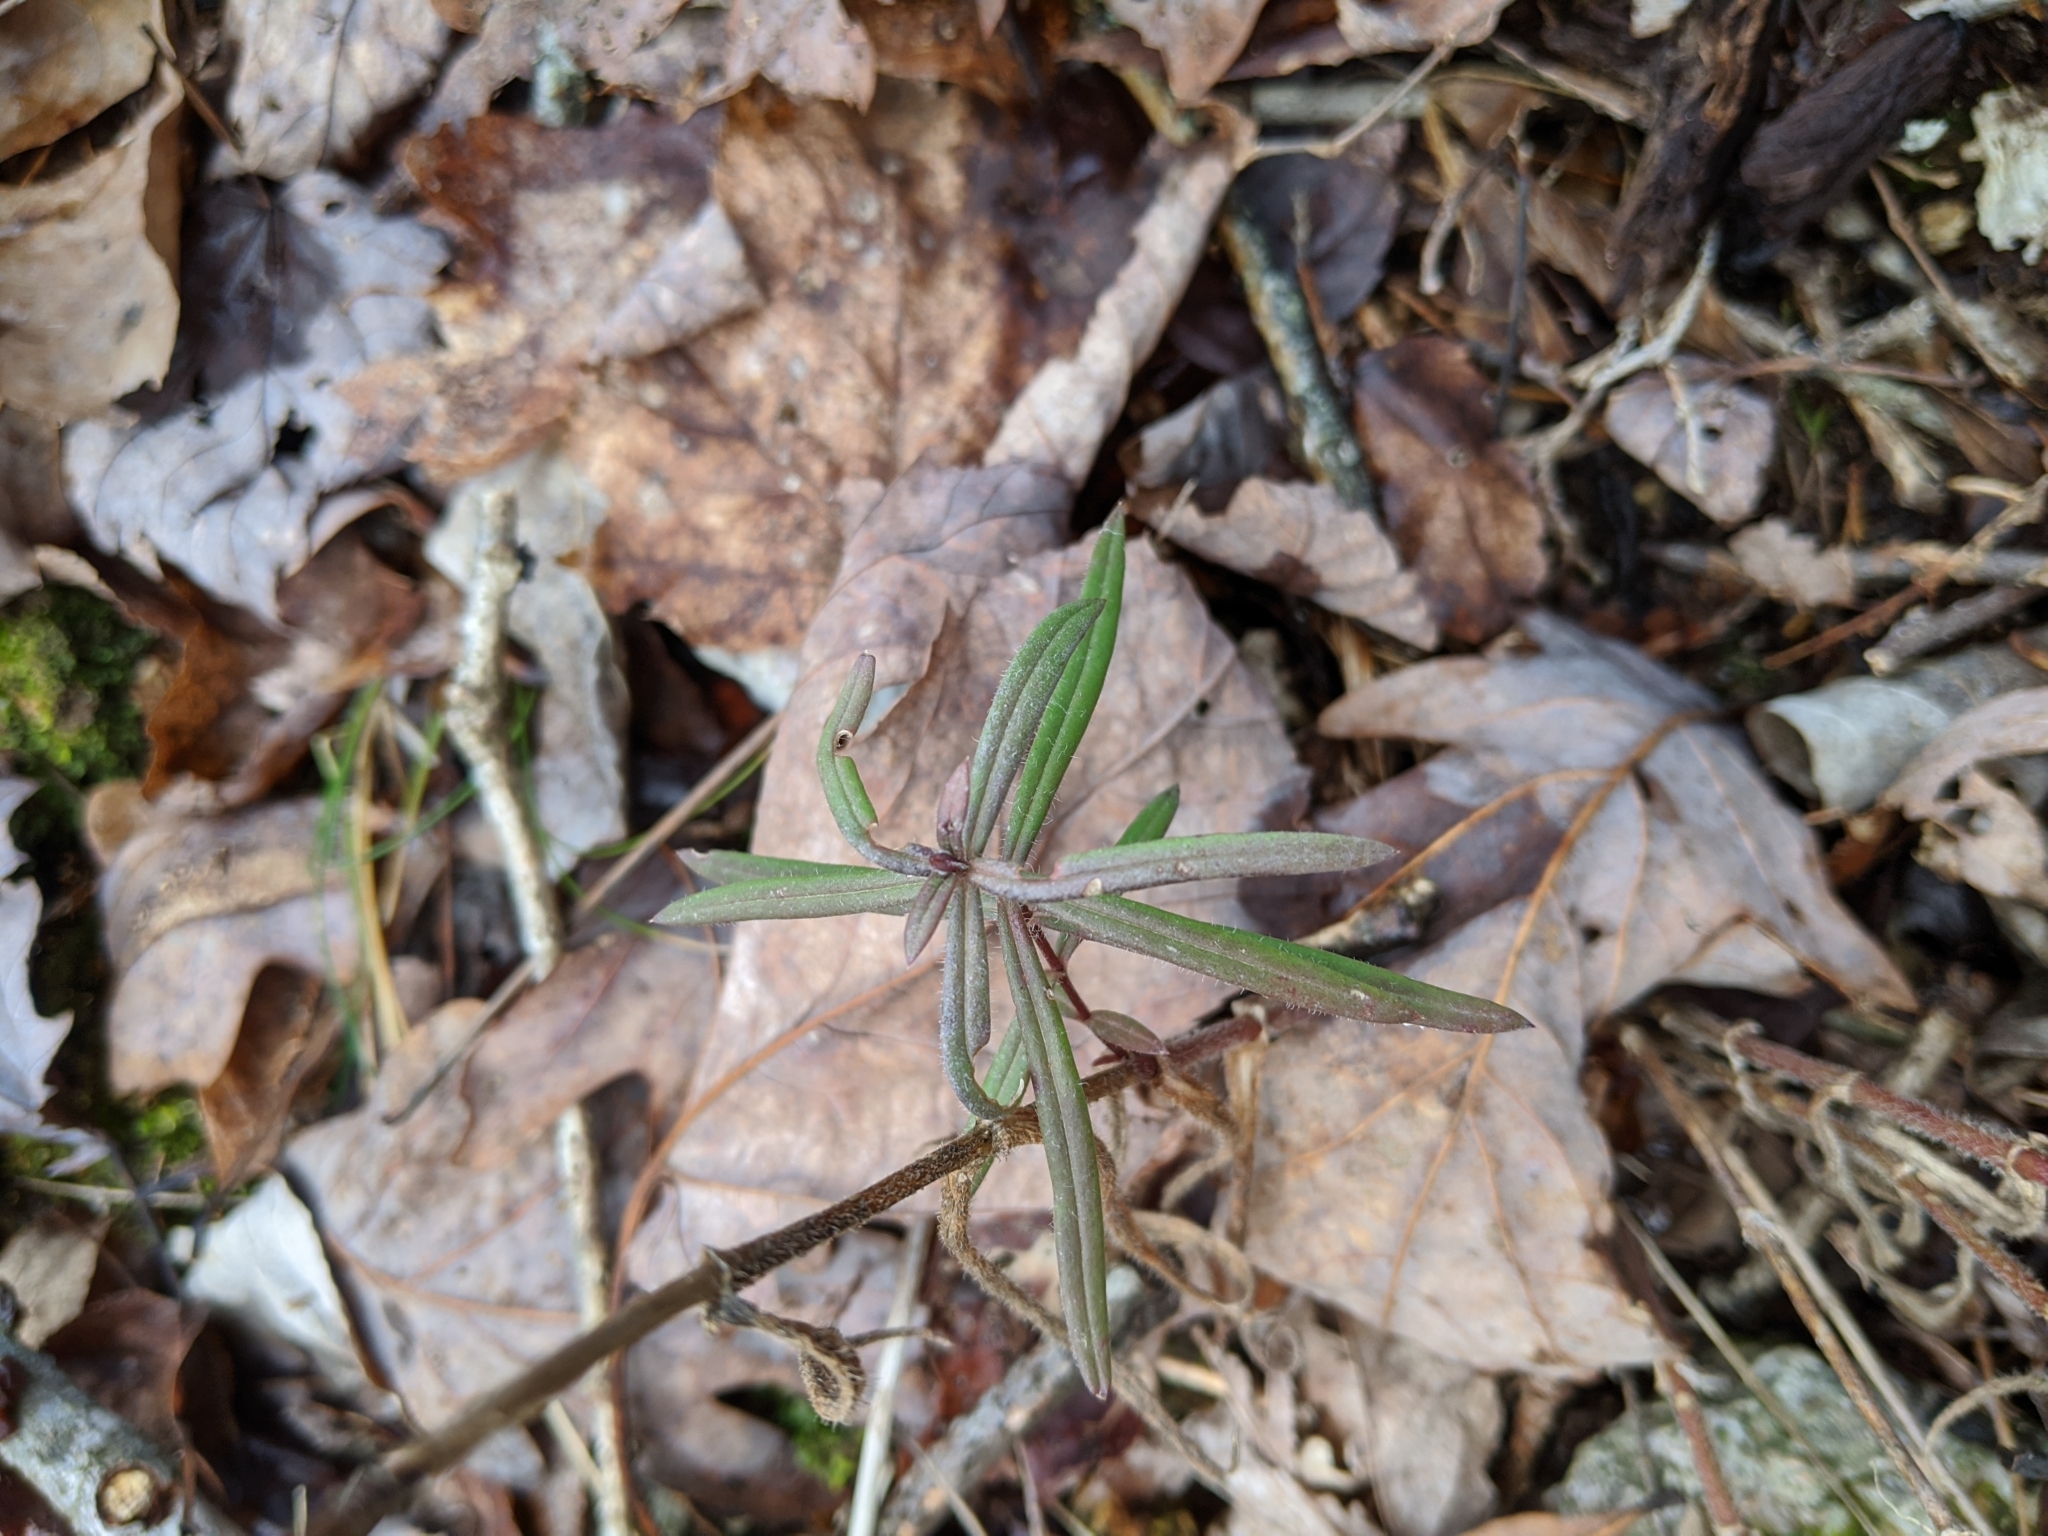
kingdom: Plantae
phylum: Tracheophyta
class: Magnoliopsida
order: Gentianales
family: Rubiaceae
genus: Hexasepalum
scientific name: Hexasepalum teres
